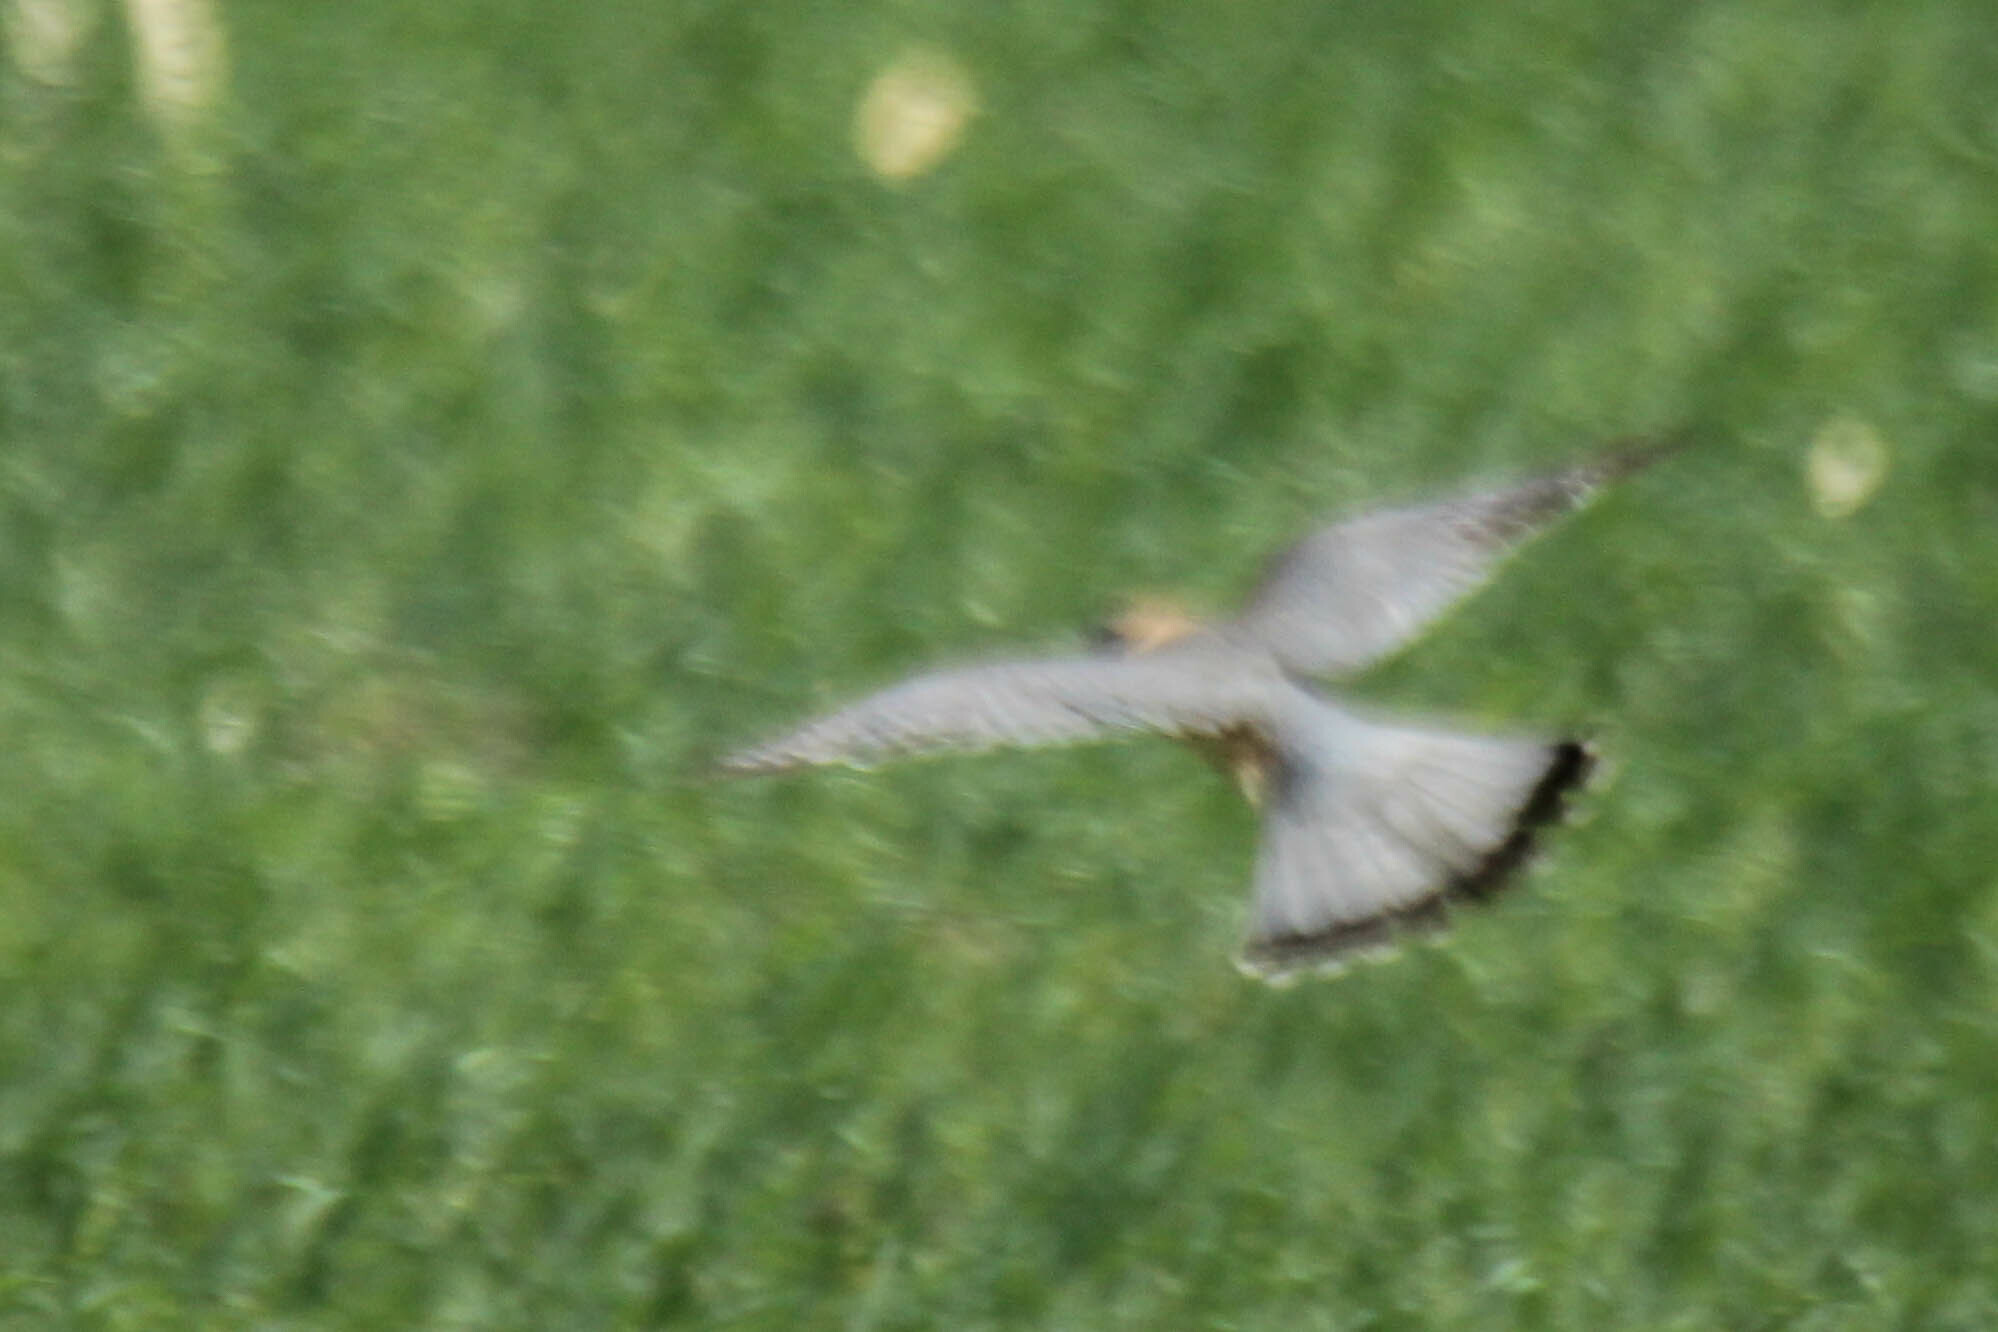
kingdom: Animalia
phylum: Chordata
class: Aves
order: Falconiformes
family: Falconidae
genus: Falco
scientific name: Falco columbarius
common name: Merlin
